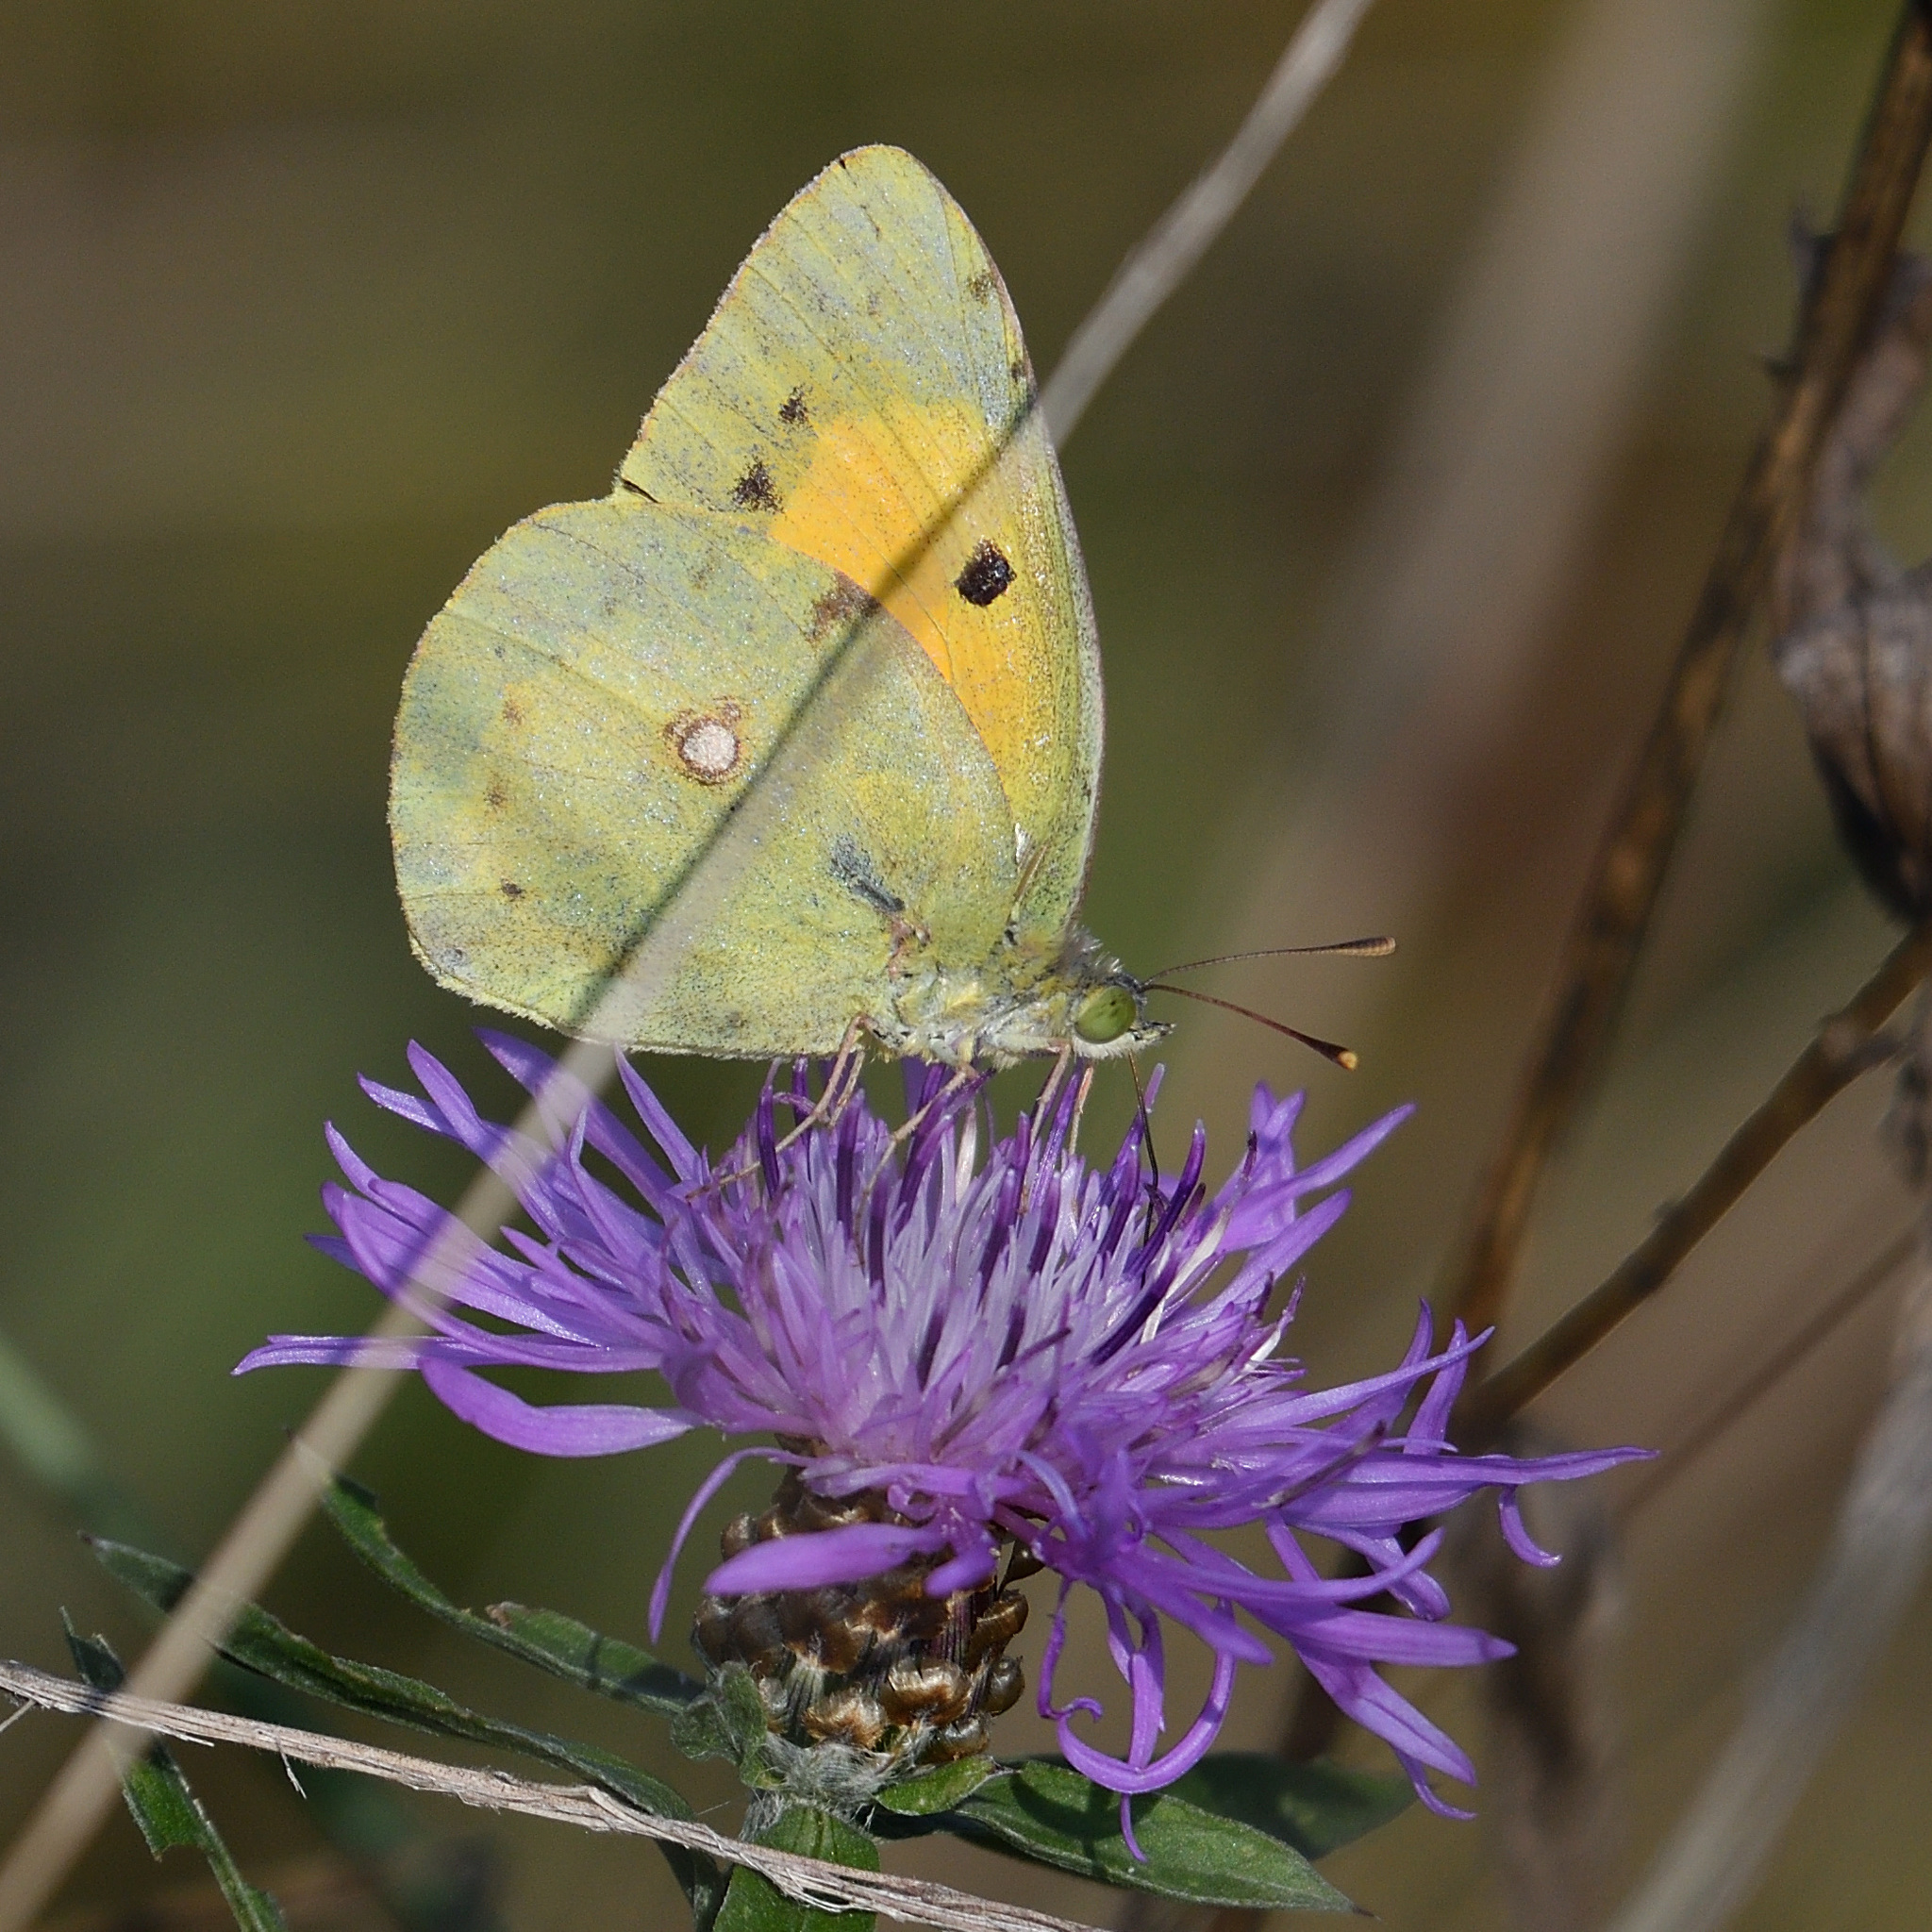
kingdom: Animalia
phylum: Arthropoda
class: Insecta
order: Lepidoptera
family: Pieridae
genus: Colias
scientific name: Colias croceus
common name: Clouded yellow
